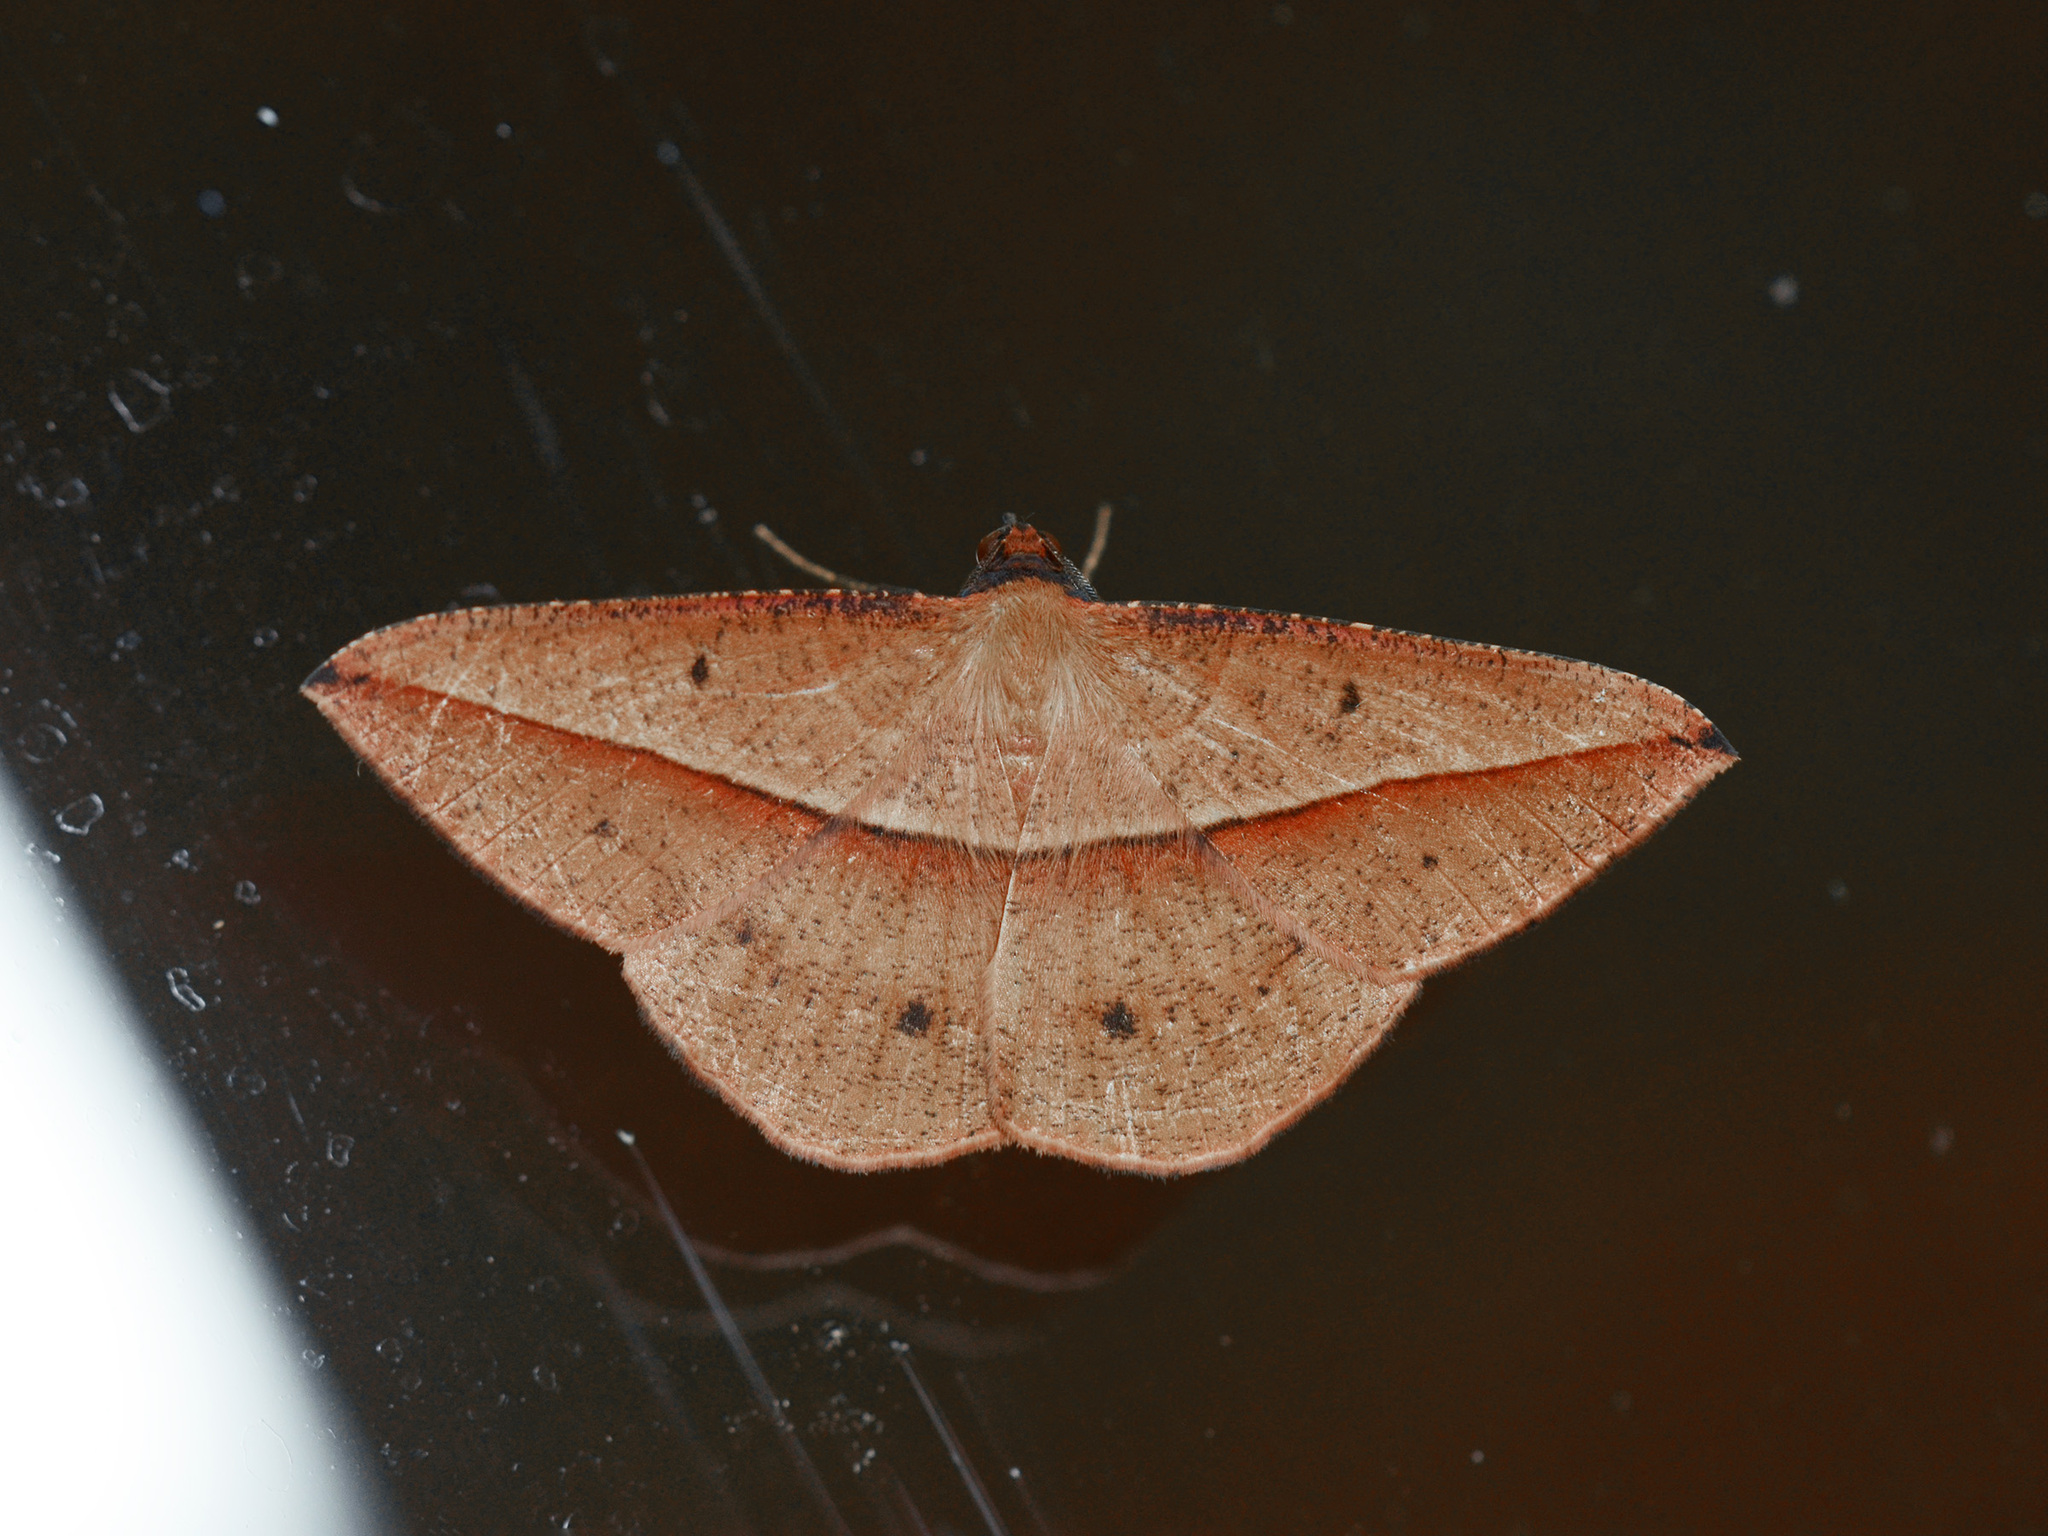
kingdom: Animalia
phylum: Arthropoda
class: Insecta
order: Lepidoptera
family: Geometridae
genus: Alex
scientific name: Alex palparia
